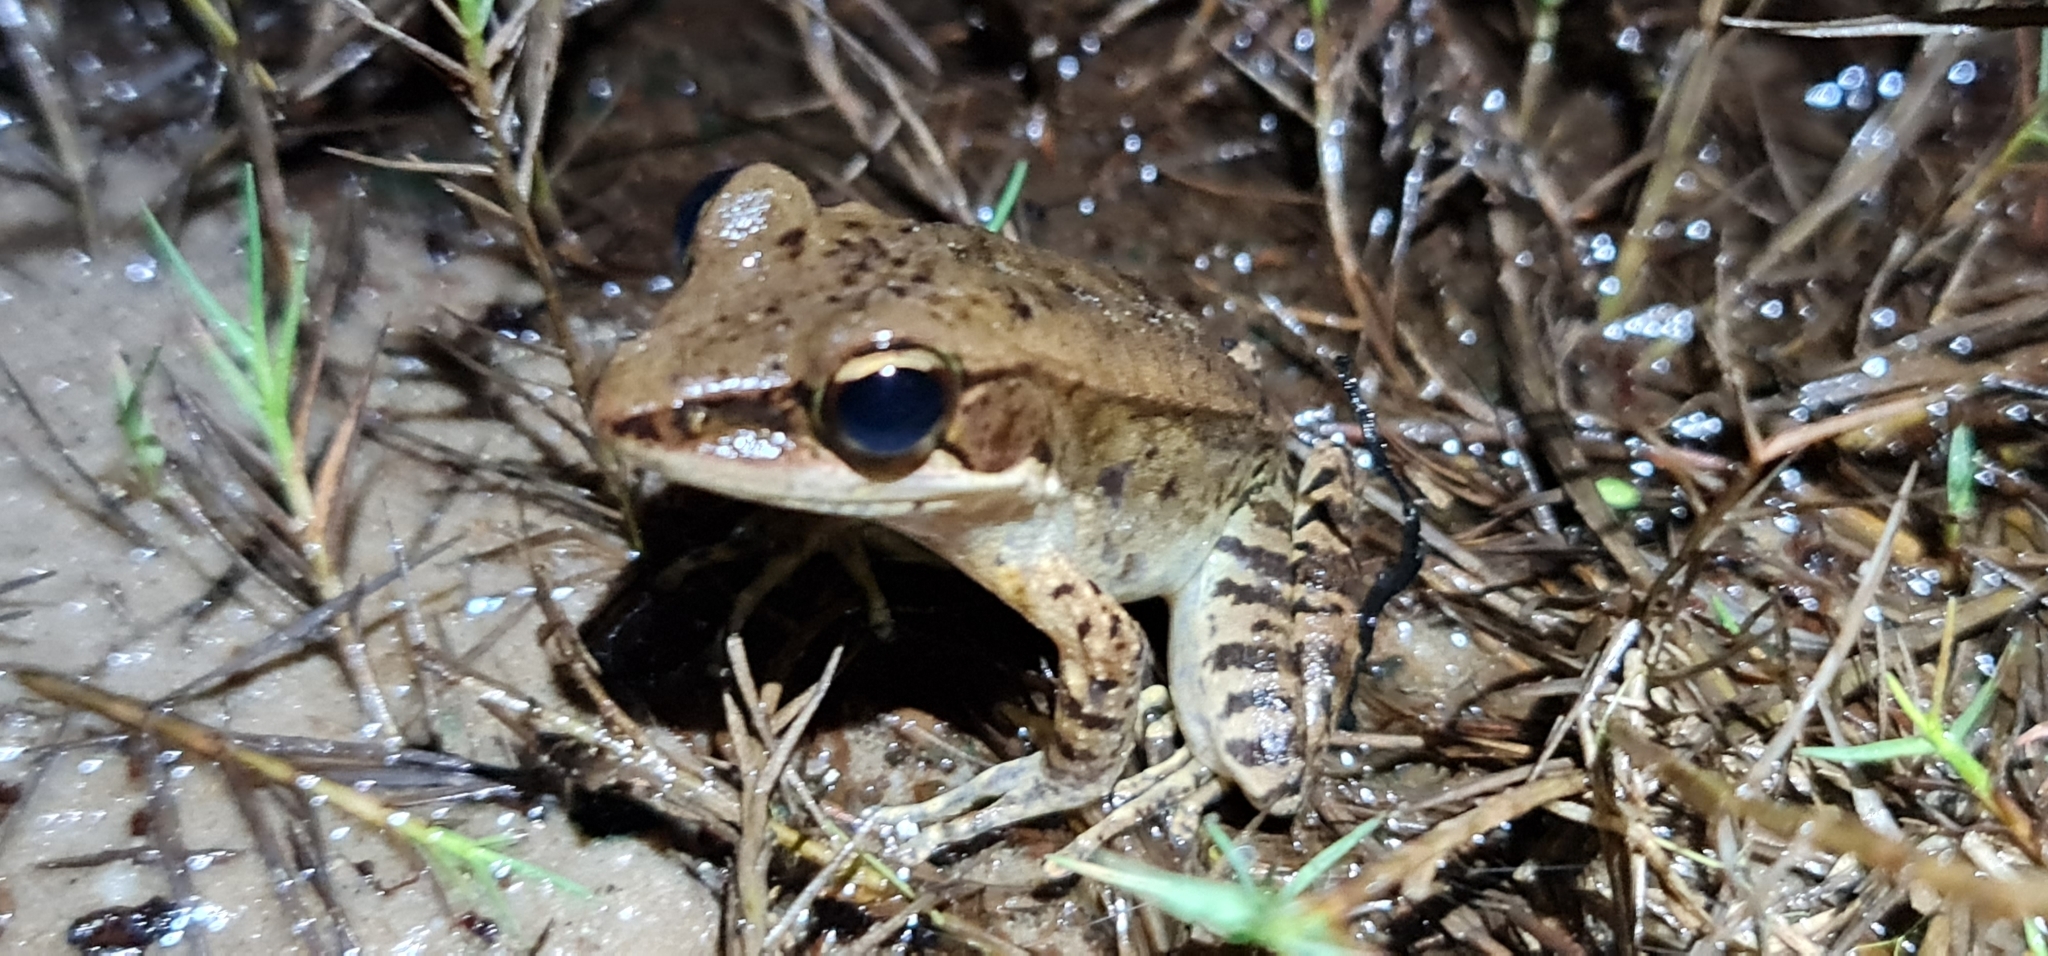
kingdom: Animalia
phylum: Chordata
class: Amphibia
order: Anura
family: Ranidae
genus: Papurana
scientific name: Papurana daemeli
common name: Arhem rana
